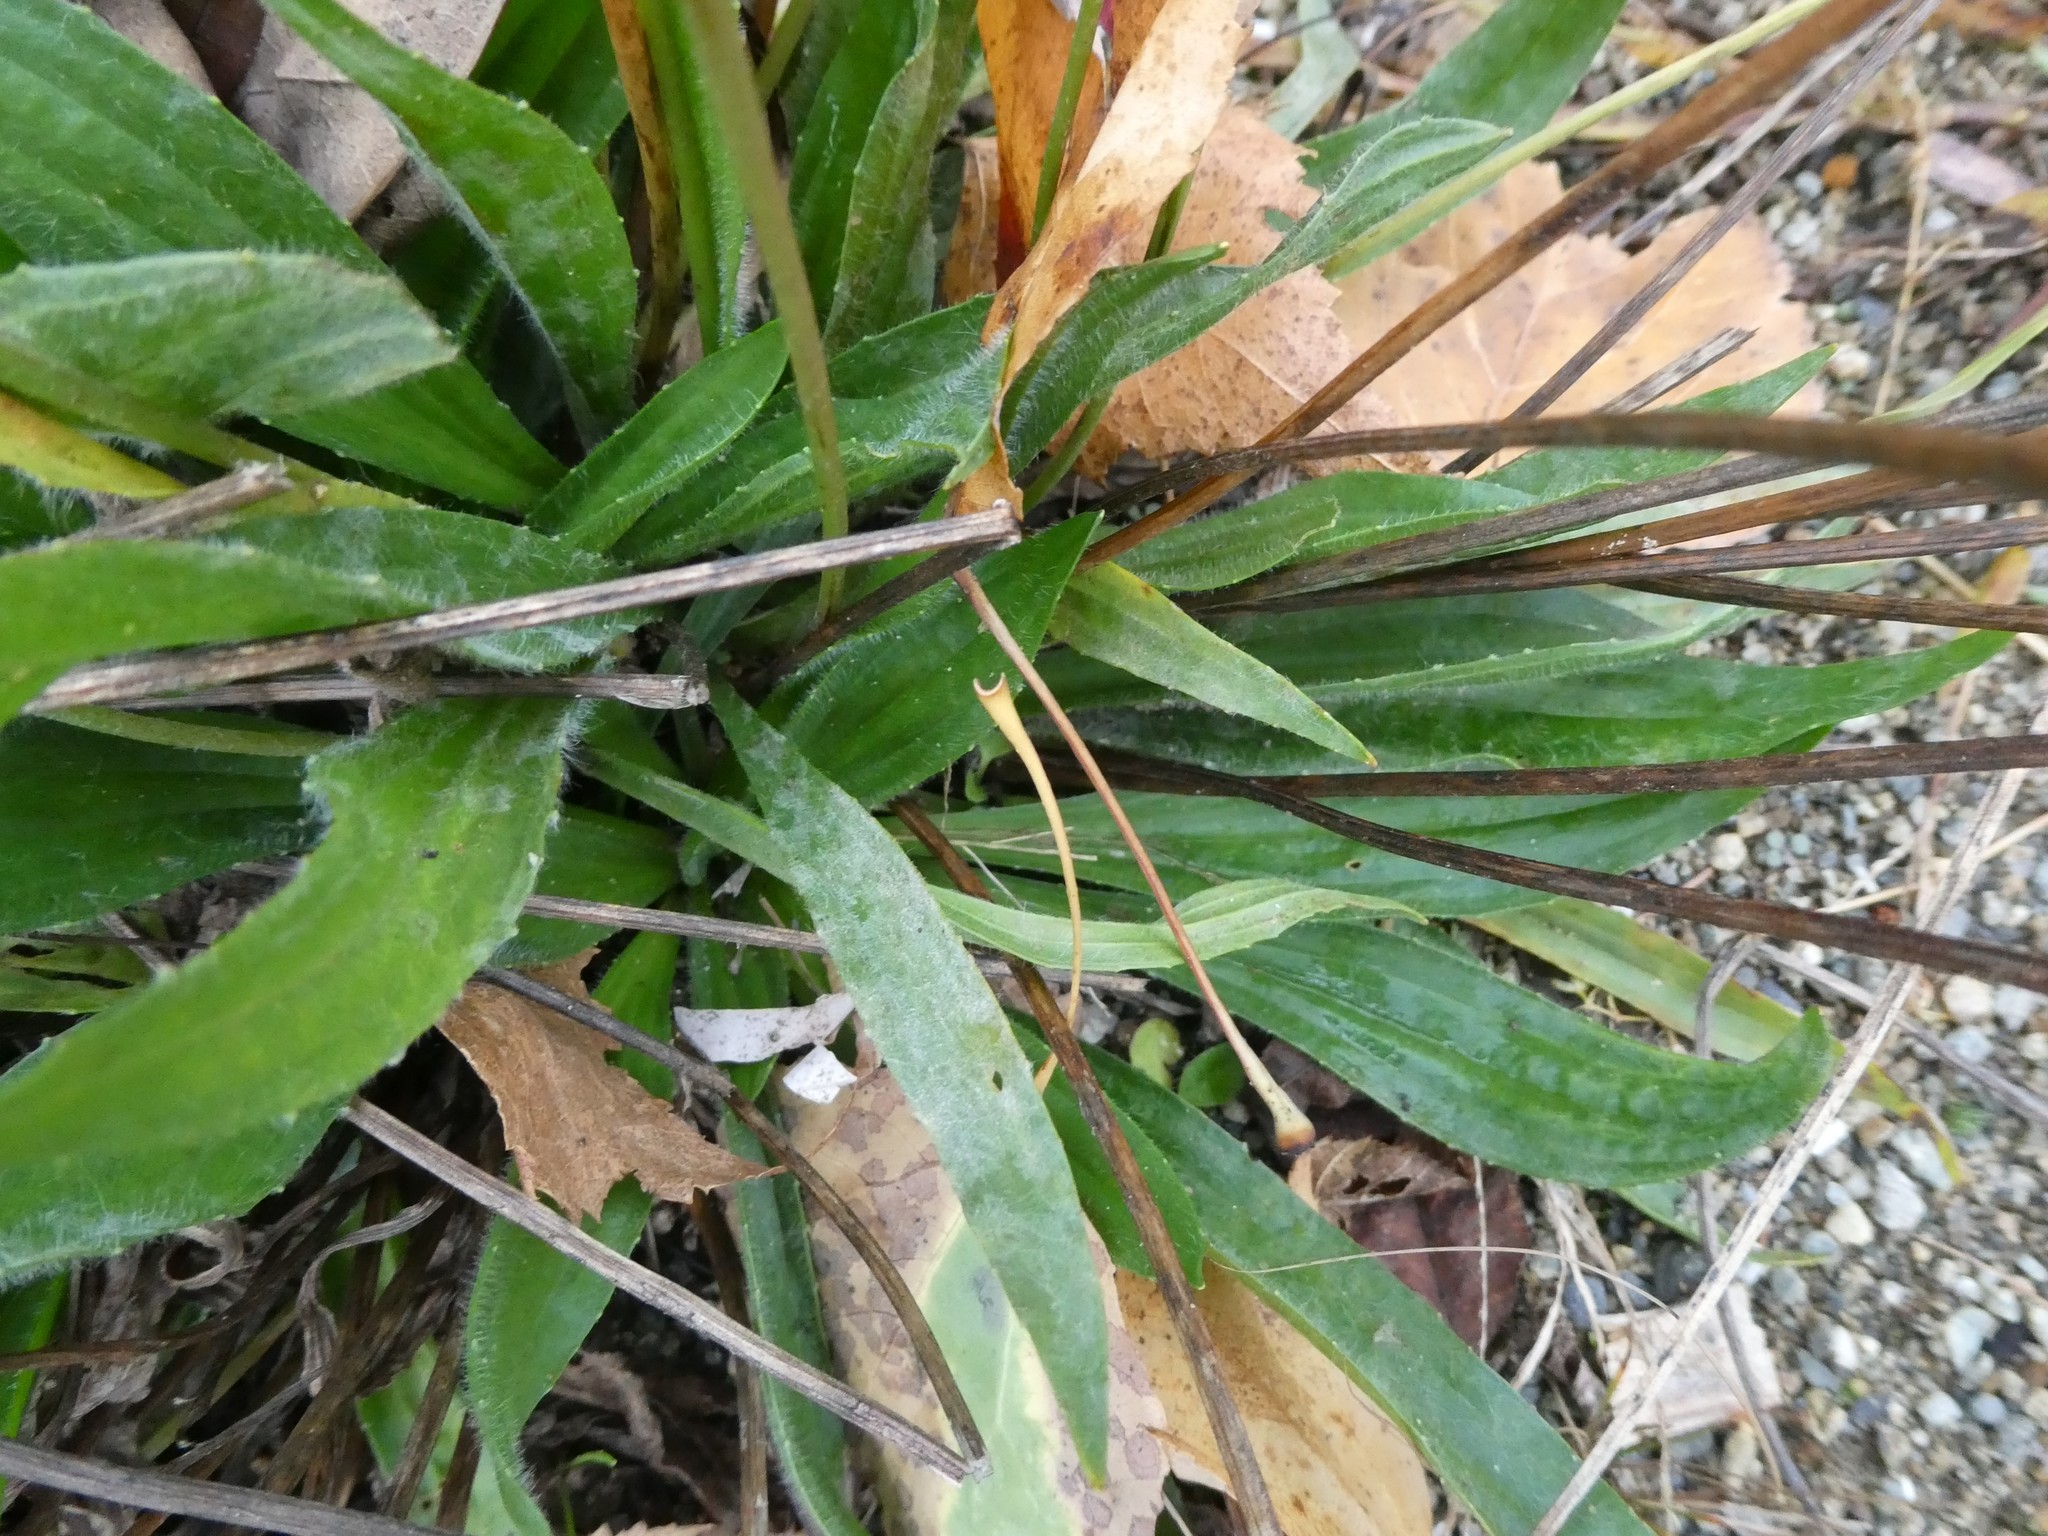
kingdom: Plantae
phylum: Tracheophyta
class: Magnoliopsida
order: Lamiales
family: Plantaginaceae
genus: Plantago
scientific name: Plantago lanceolata
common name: Ribwort plantain
